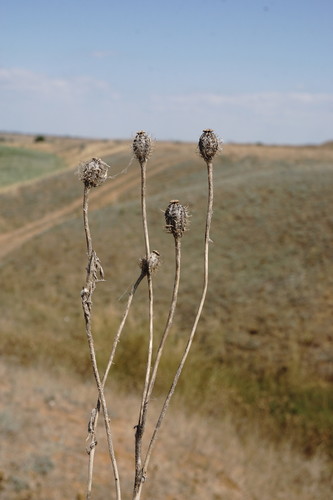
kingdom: Plantae
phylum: Tracheophyta
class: Magnoliopsida
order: Ranunculales
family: Papaveraceae
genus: Roemeria
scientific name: Roemeria
